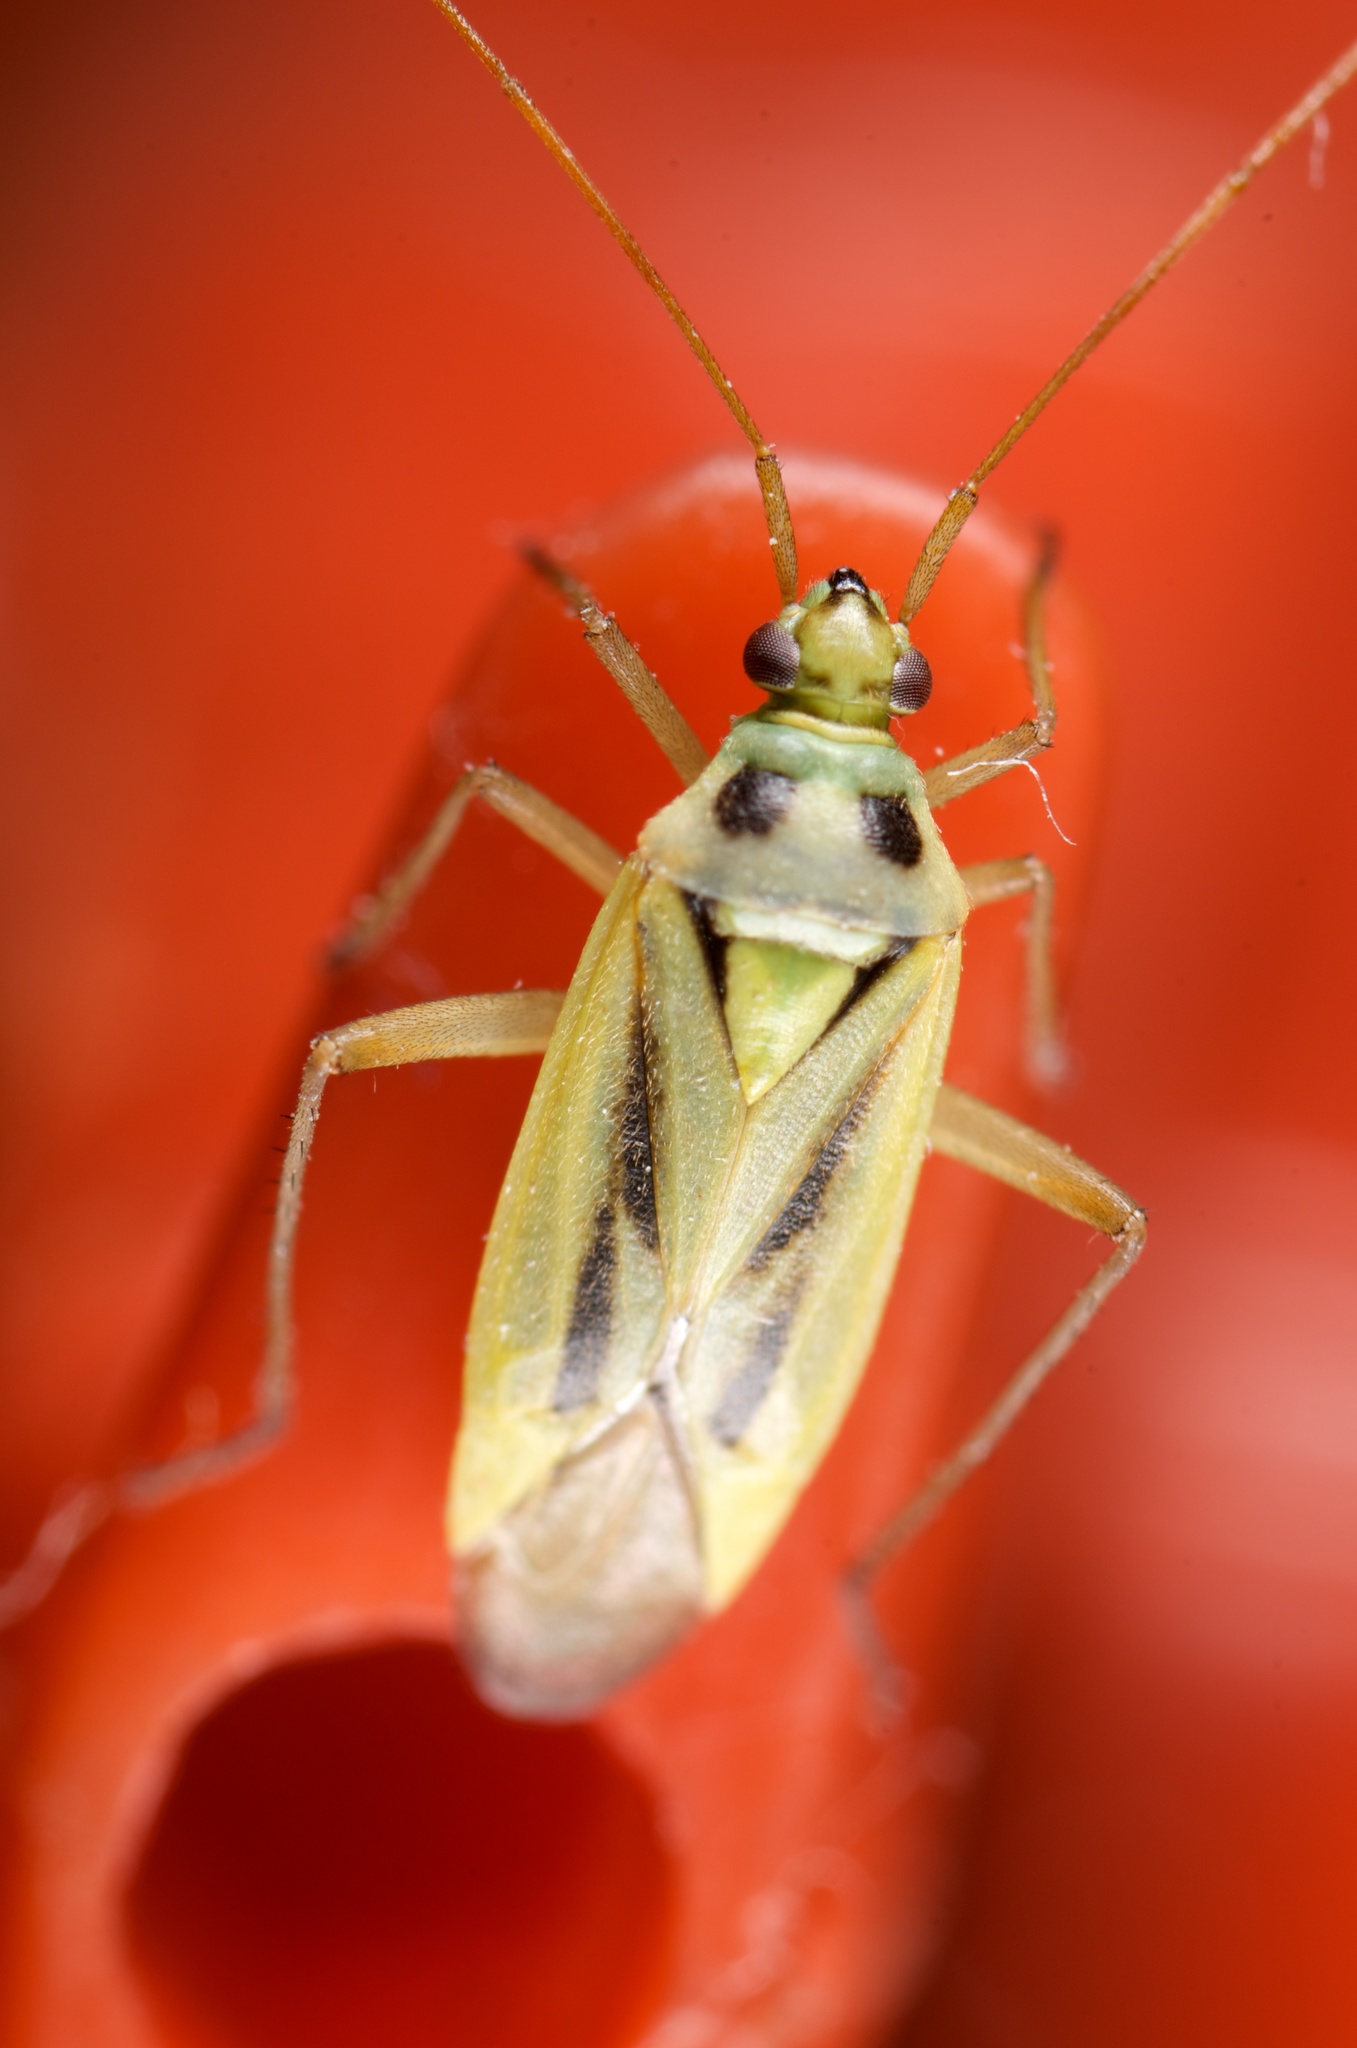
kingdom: Animalia
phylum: Arthropoda
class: Insecta
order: Hemiptera
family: Miridae
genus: Stenotus
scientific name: Stenotus binotatus
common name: Plant bug
